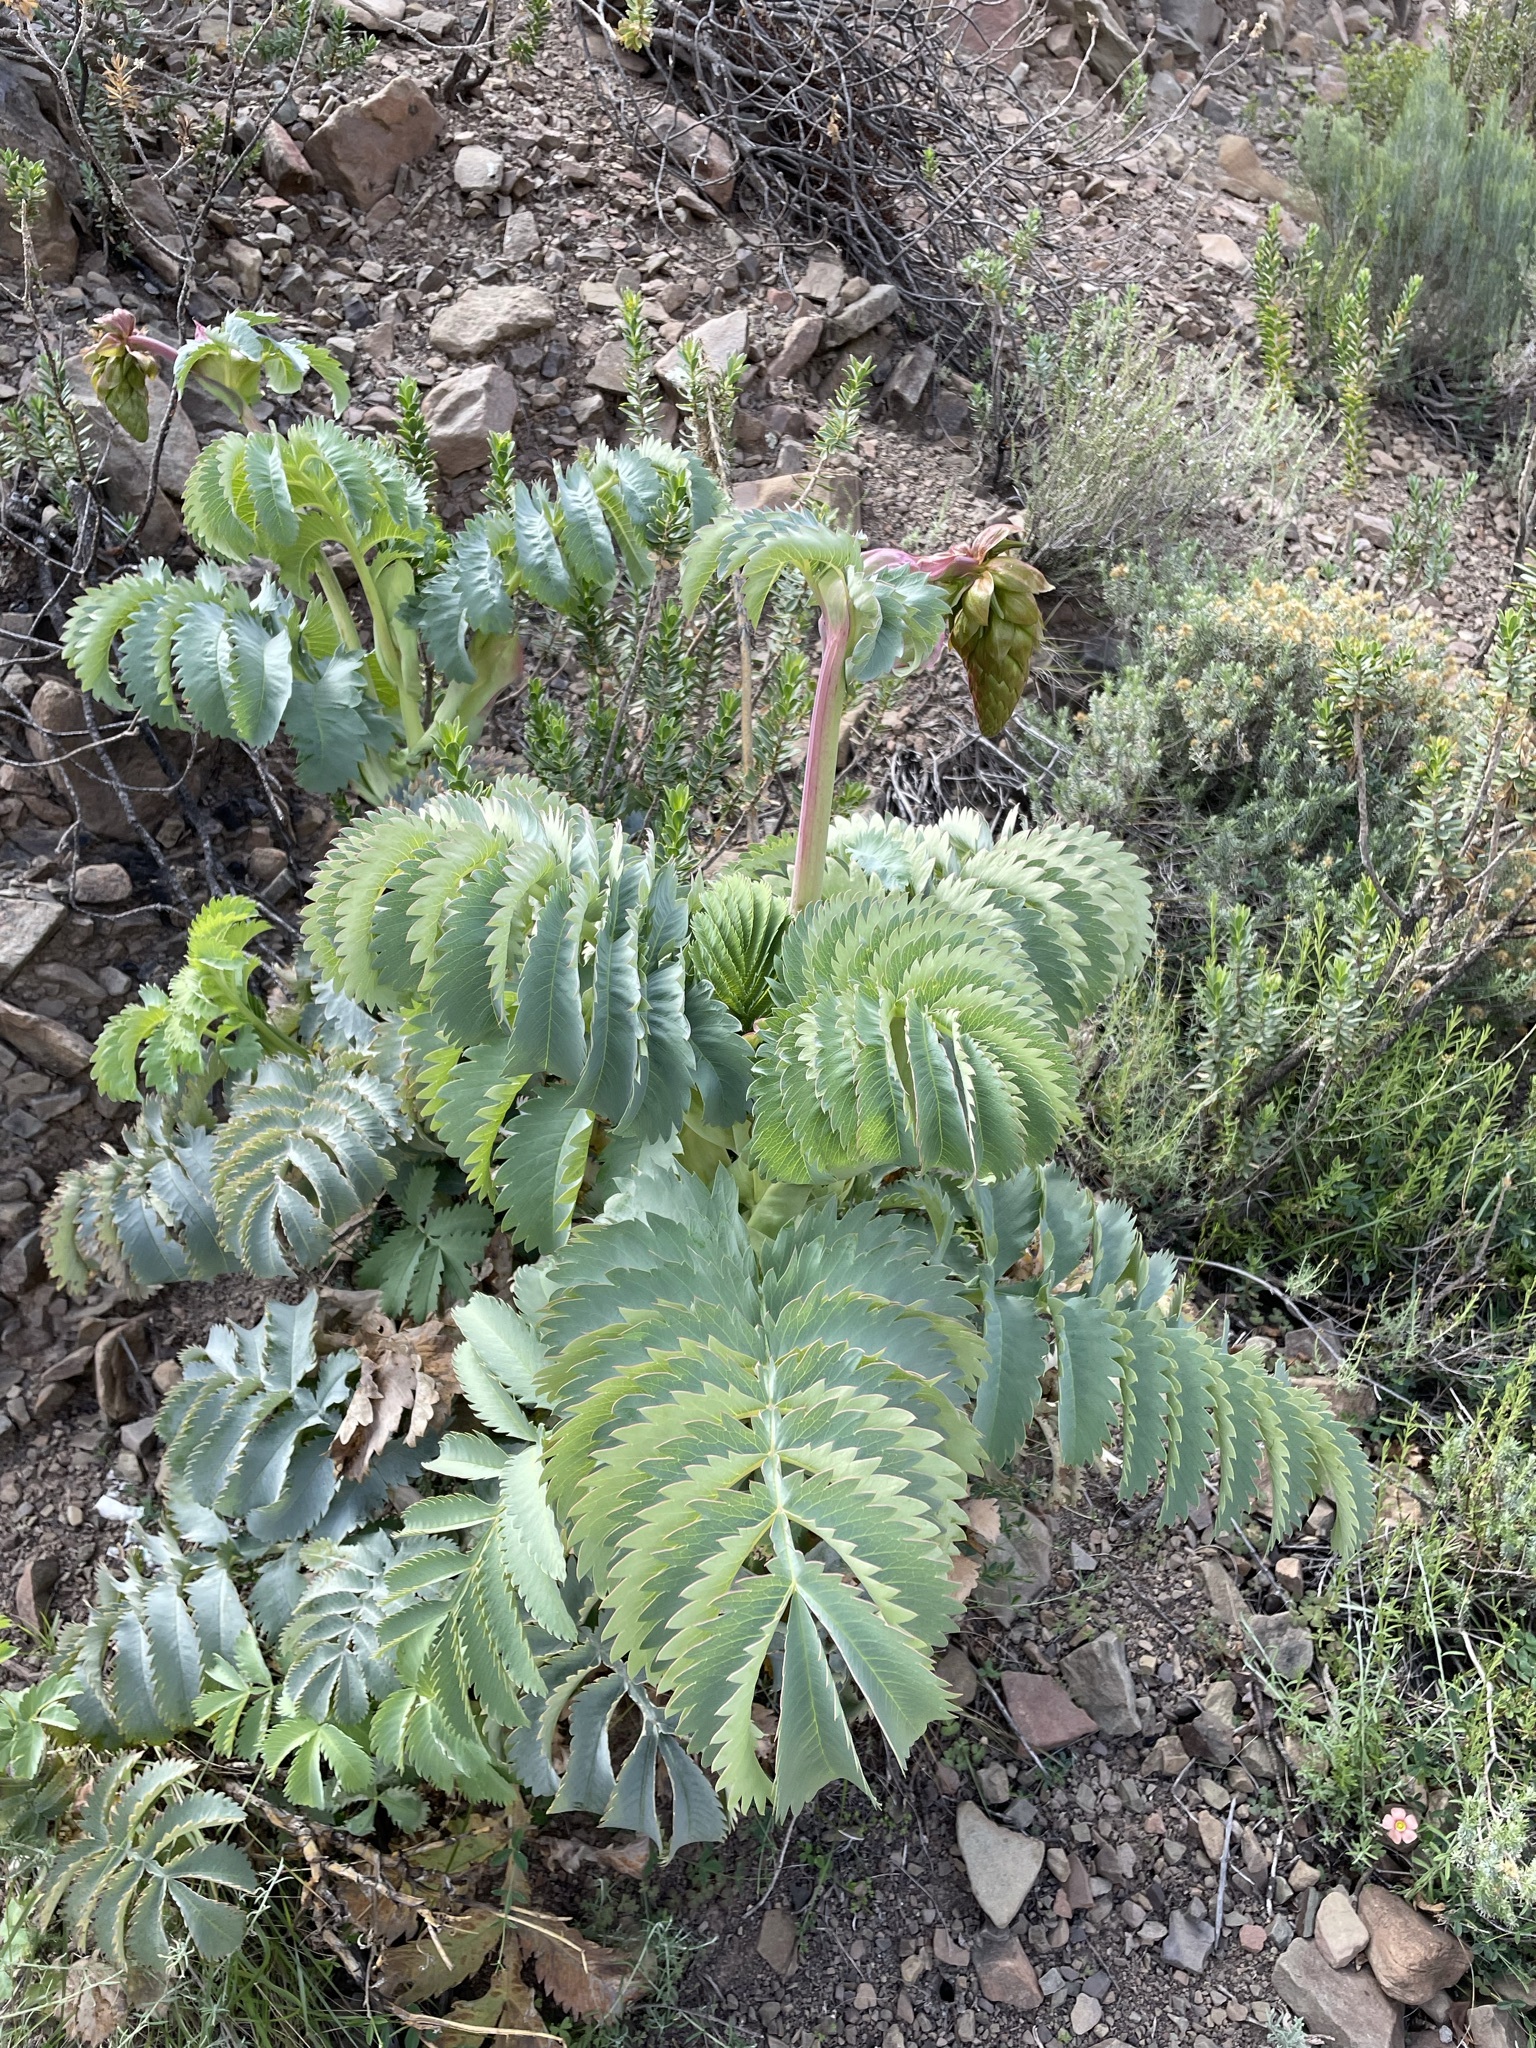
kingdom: Plantae
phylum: Tracheophyta
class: Magnoliopsida
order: Geraniales
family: Melianthaceae
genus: Melianthus
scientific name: Melianthus major
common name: Honey-flower
